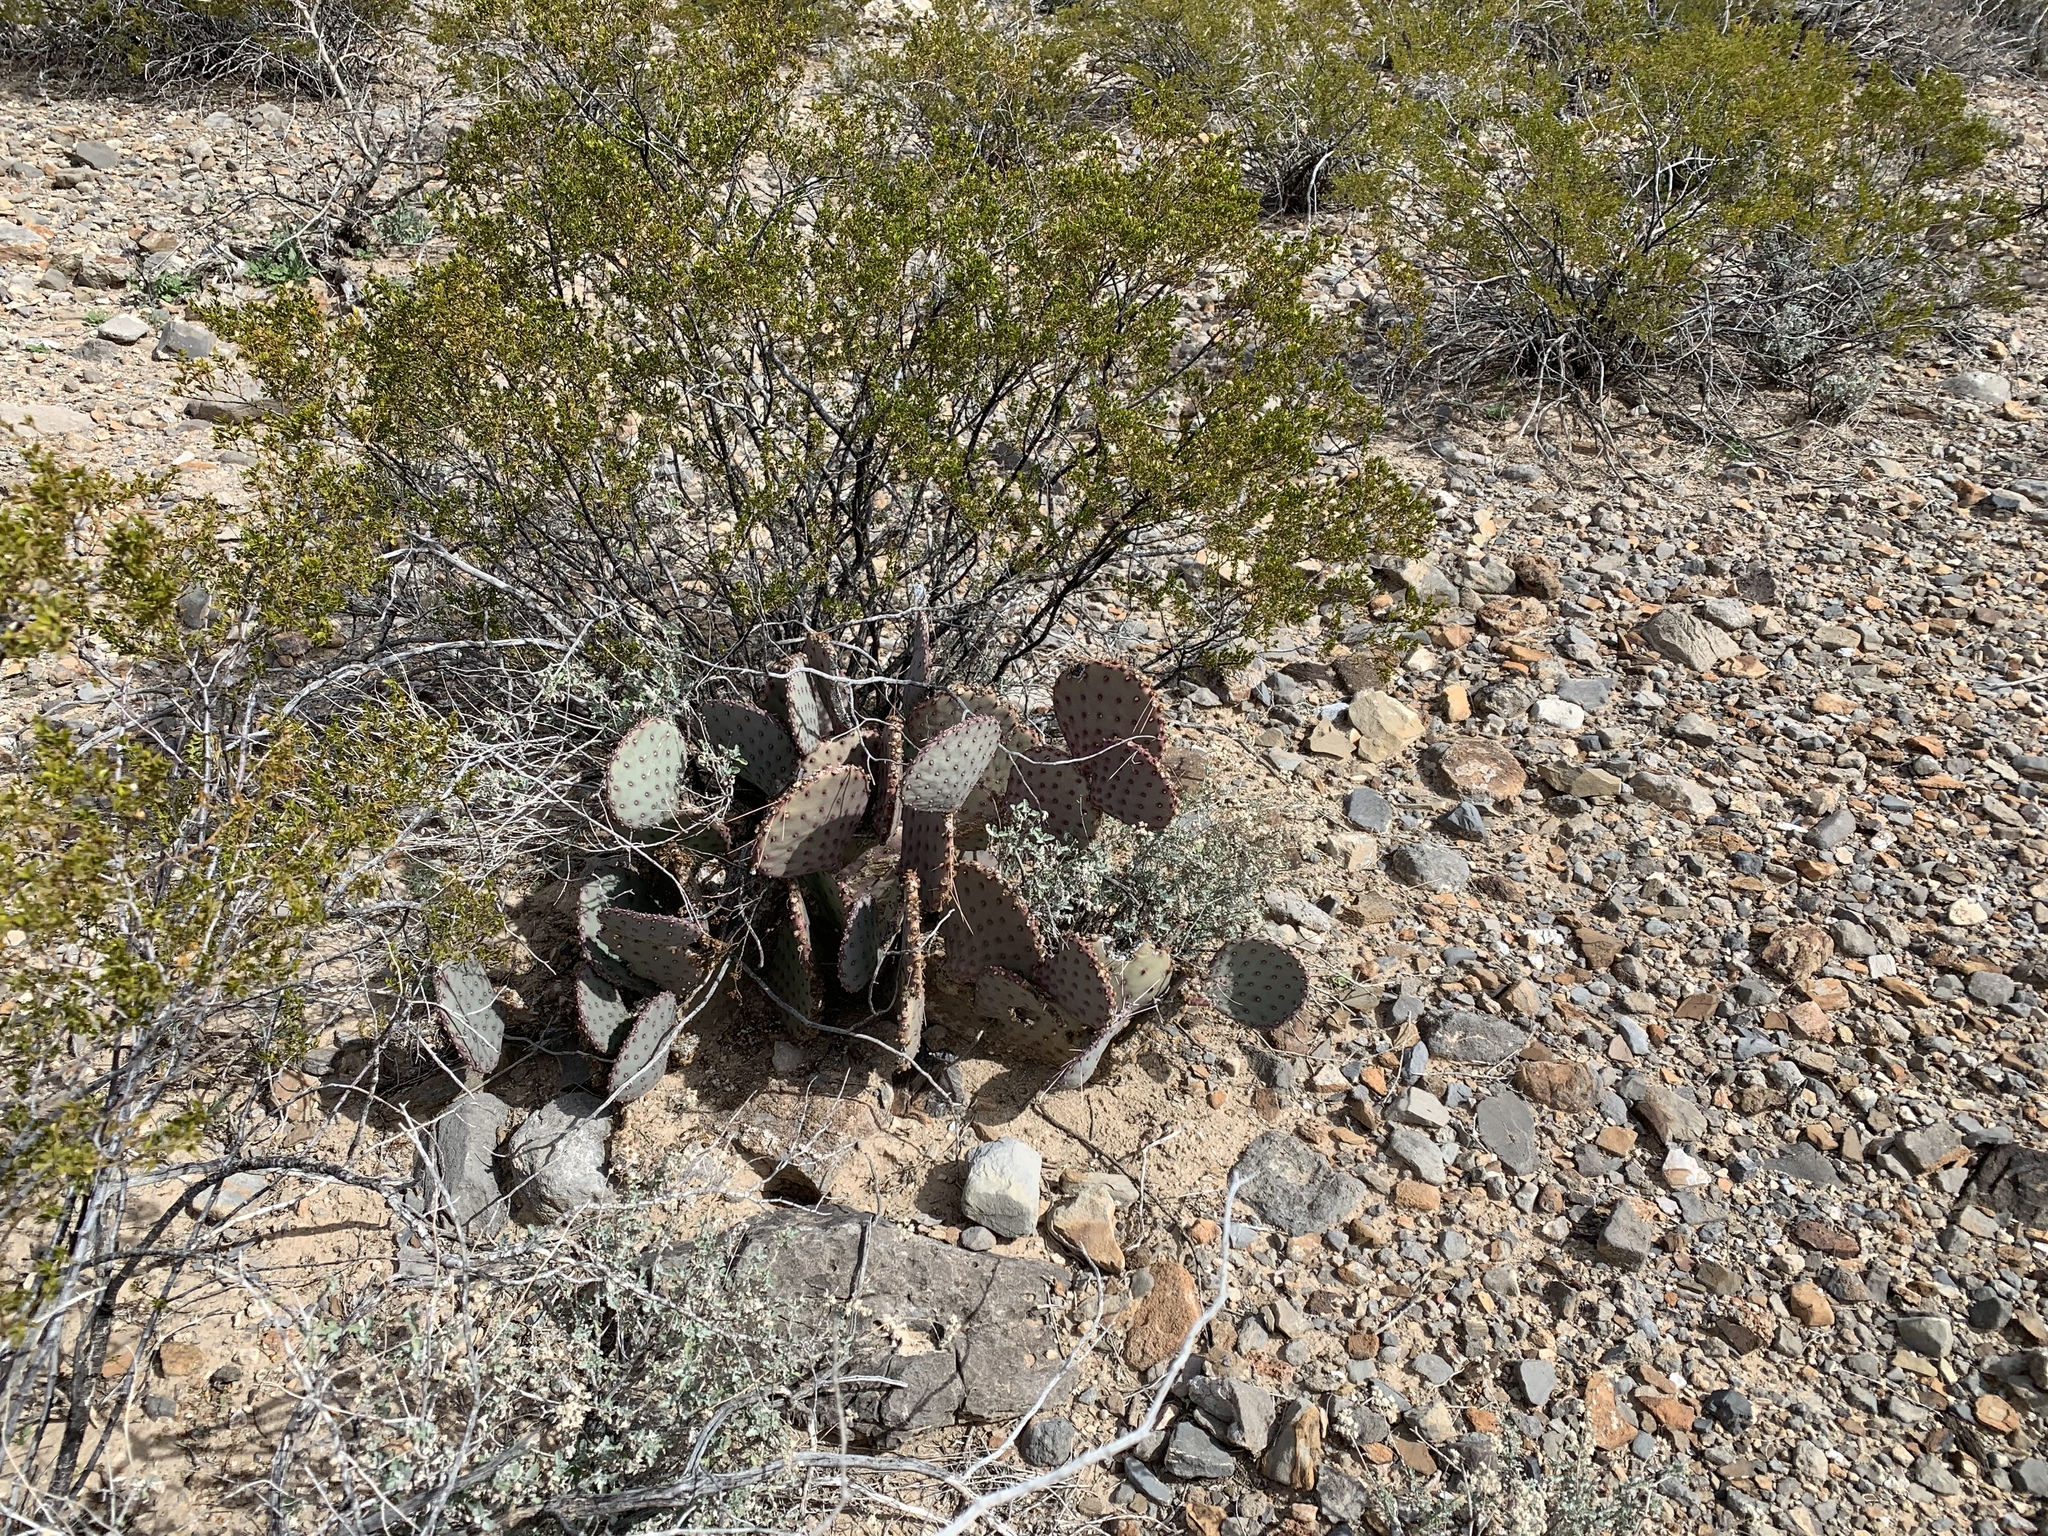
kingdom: Plantae
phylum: Tracheophyta
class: Magnoliopsida
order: Caryophyllales
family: Cactaceae
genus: Opuntia
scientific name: Opuntia macrocentra
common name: Purple prickly-pear
